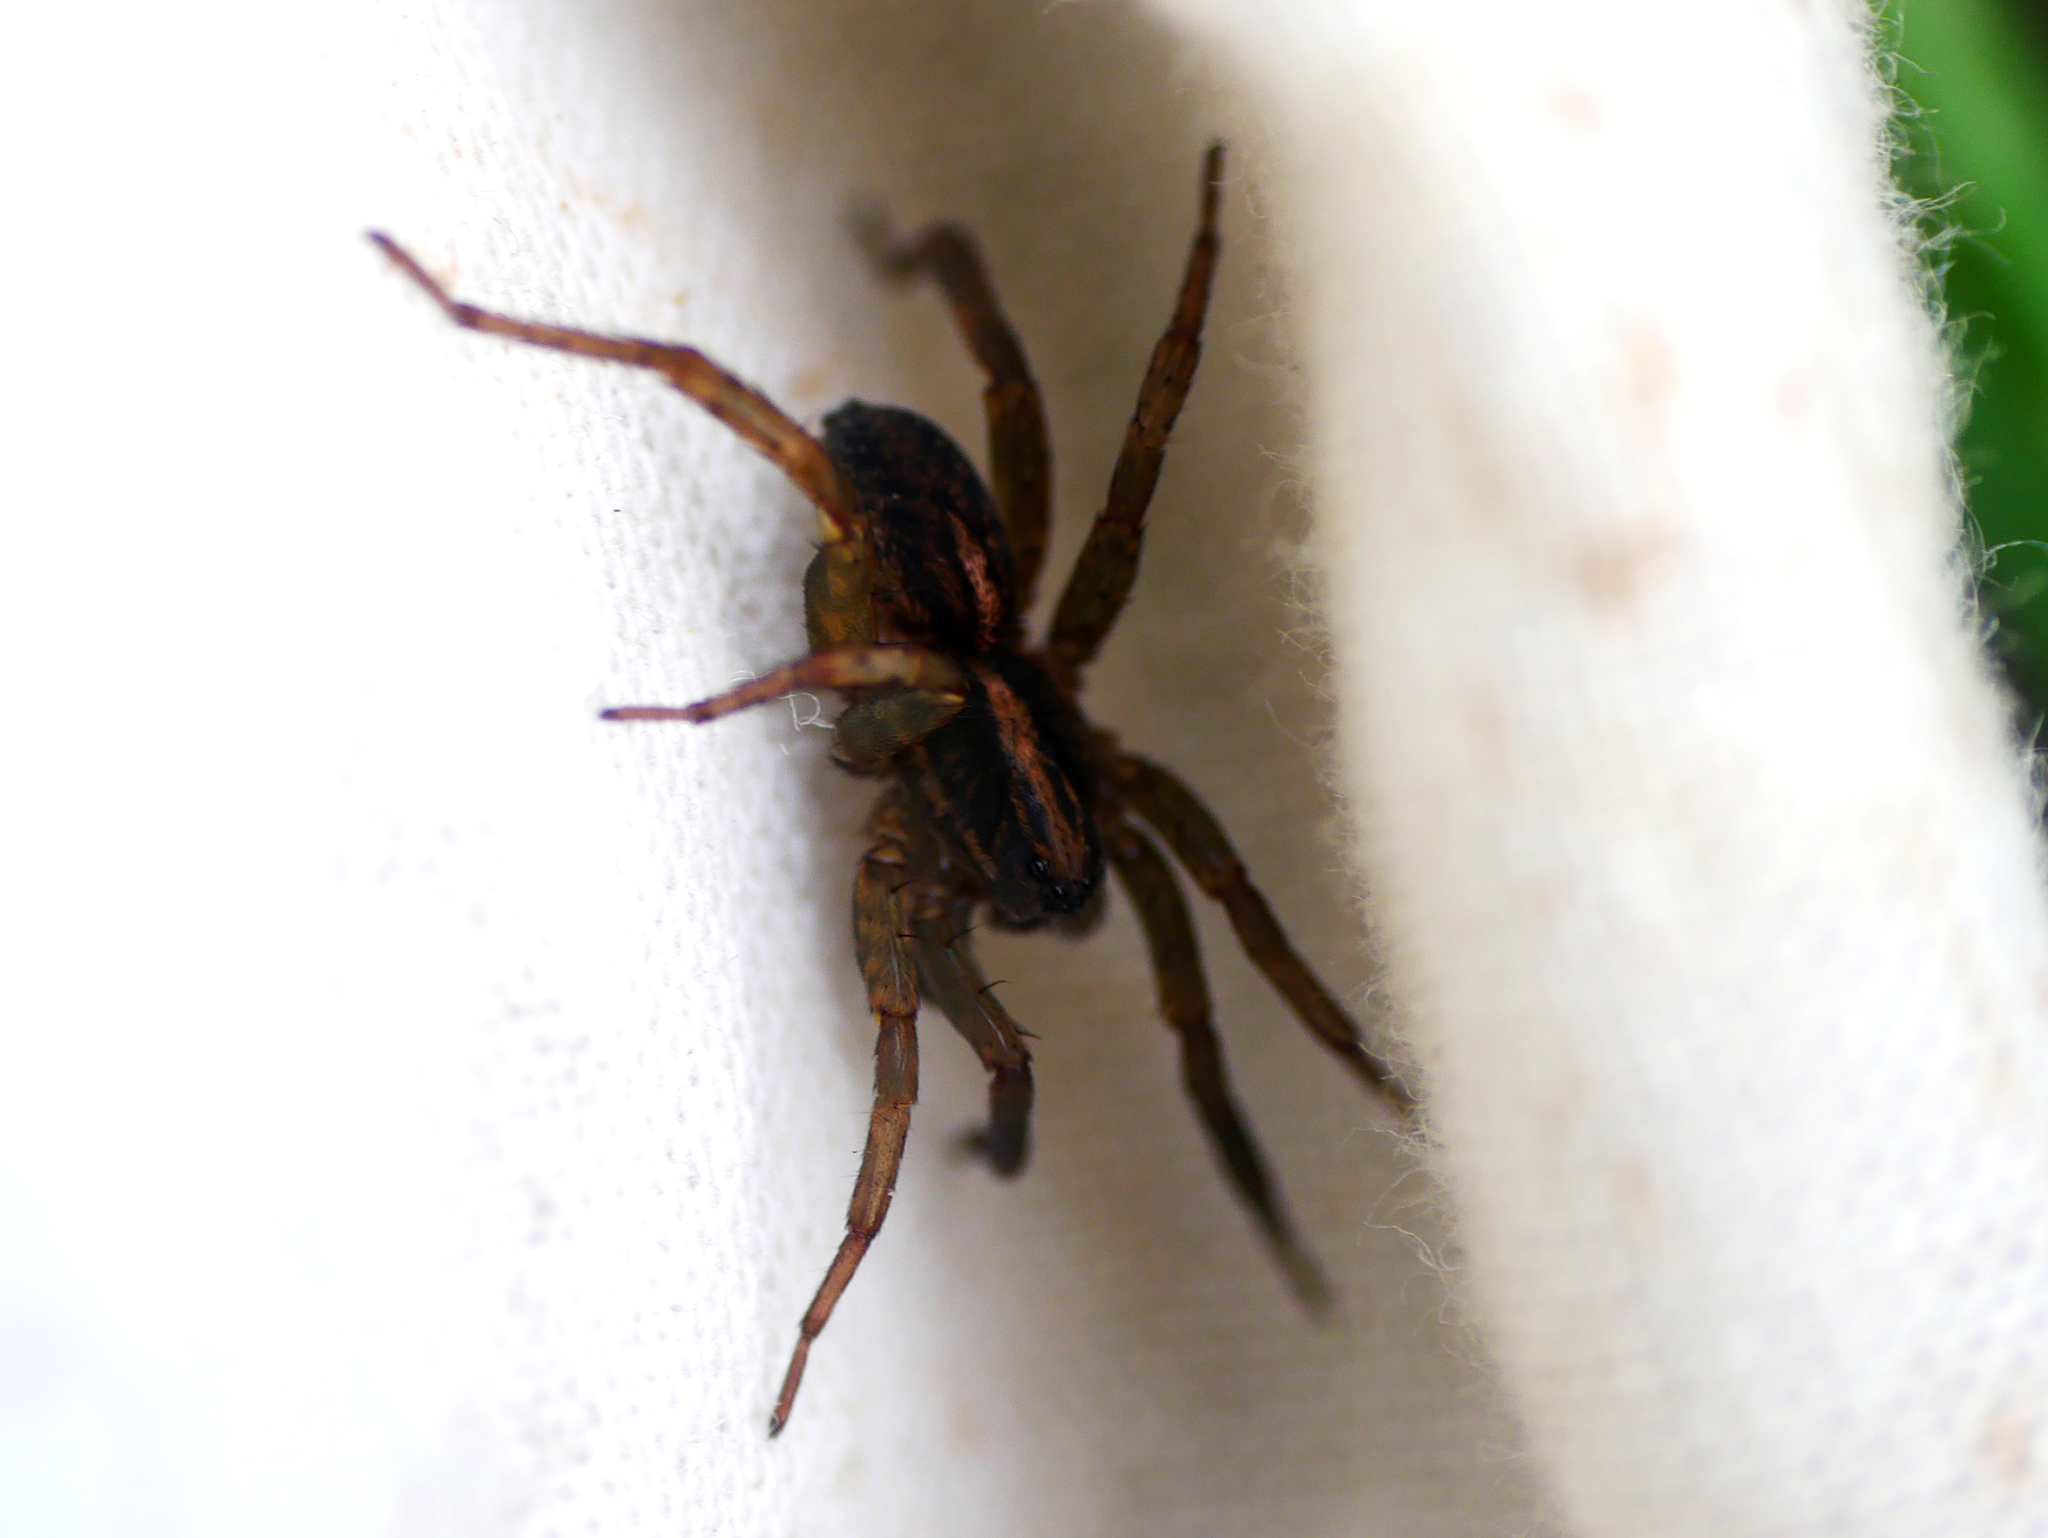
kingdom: Animalia
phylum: Arthropoda
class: Arachnida
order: Araneae
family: Lycosidae
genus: Trochosa
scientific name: Trochosa ruricola
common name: Spider
